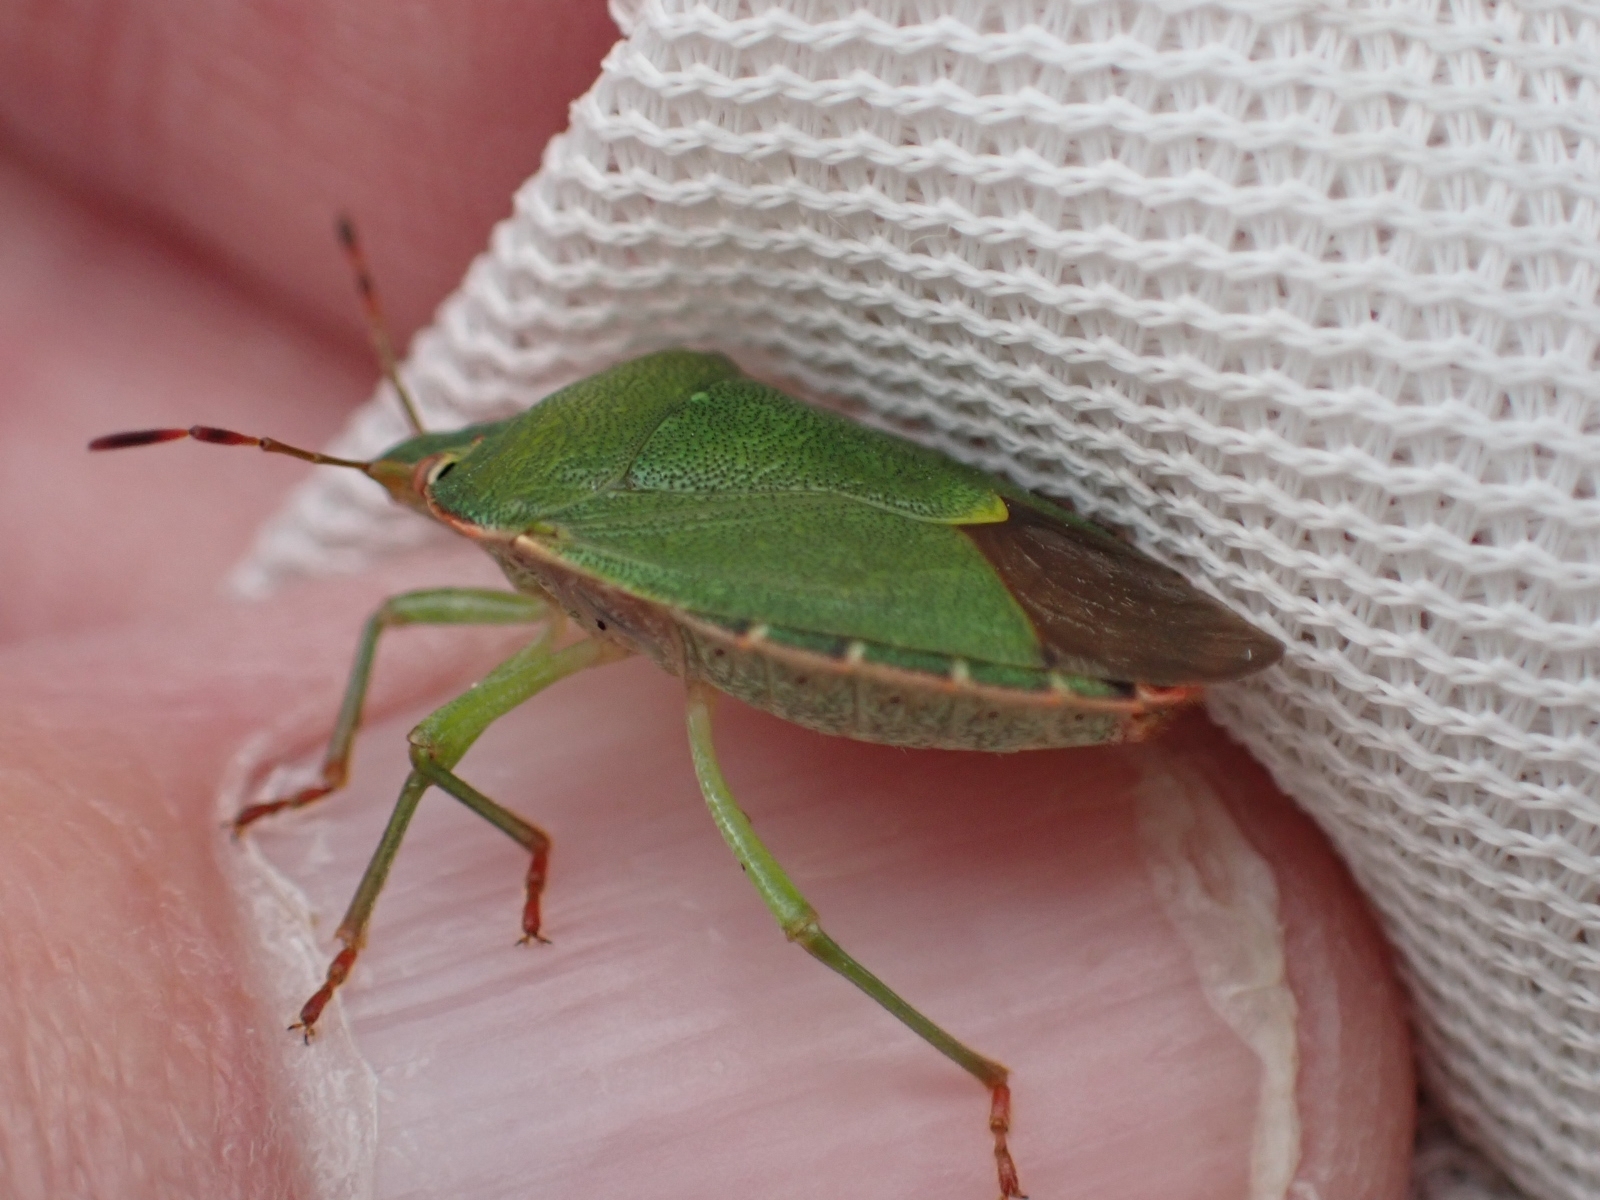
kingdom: Animalia
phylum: Arthropoda
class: Insecta
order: Hemiptera
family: Pentatomidae
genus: Palomena
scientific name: Palomena prasina
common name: Green shieldbug
